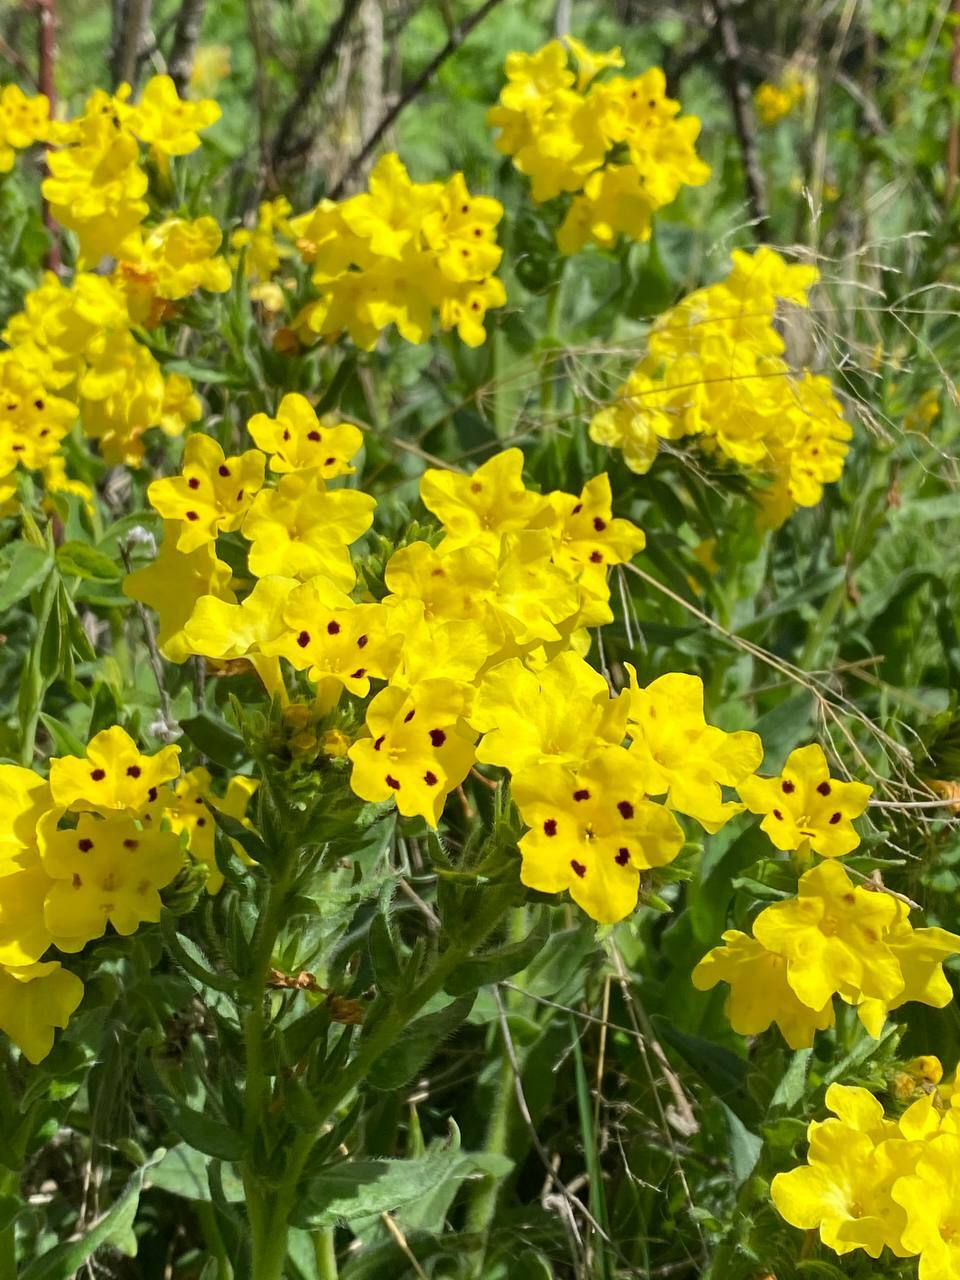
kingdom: Plantae
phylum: Tracheophyta
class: Magnoliopsida
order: Boraginales
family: Boraginaceae
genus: Huynhia
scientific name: Huynhia pulchra
